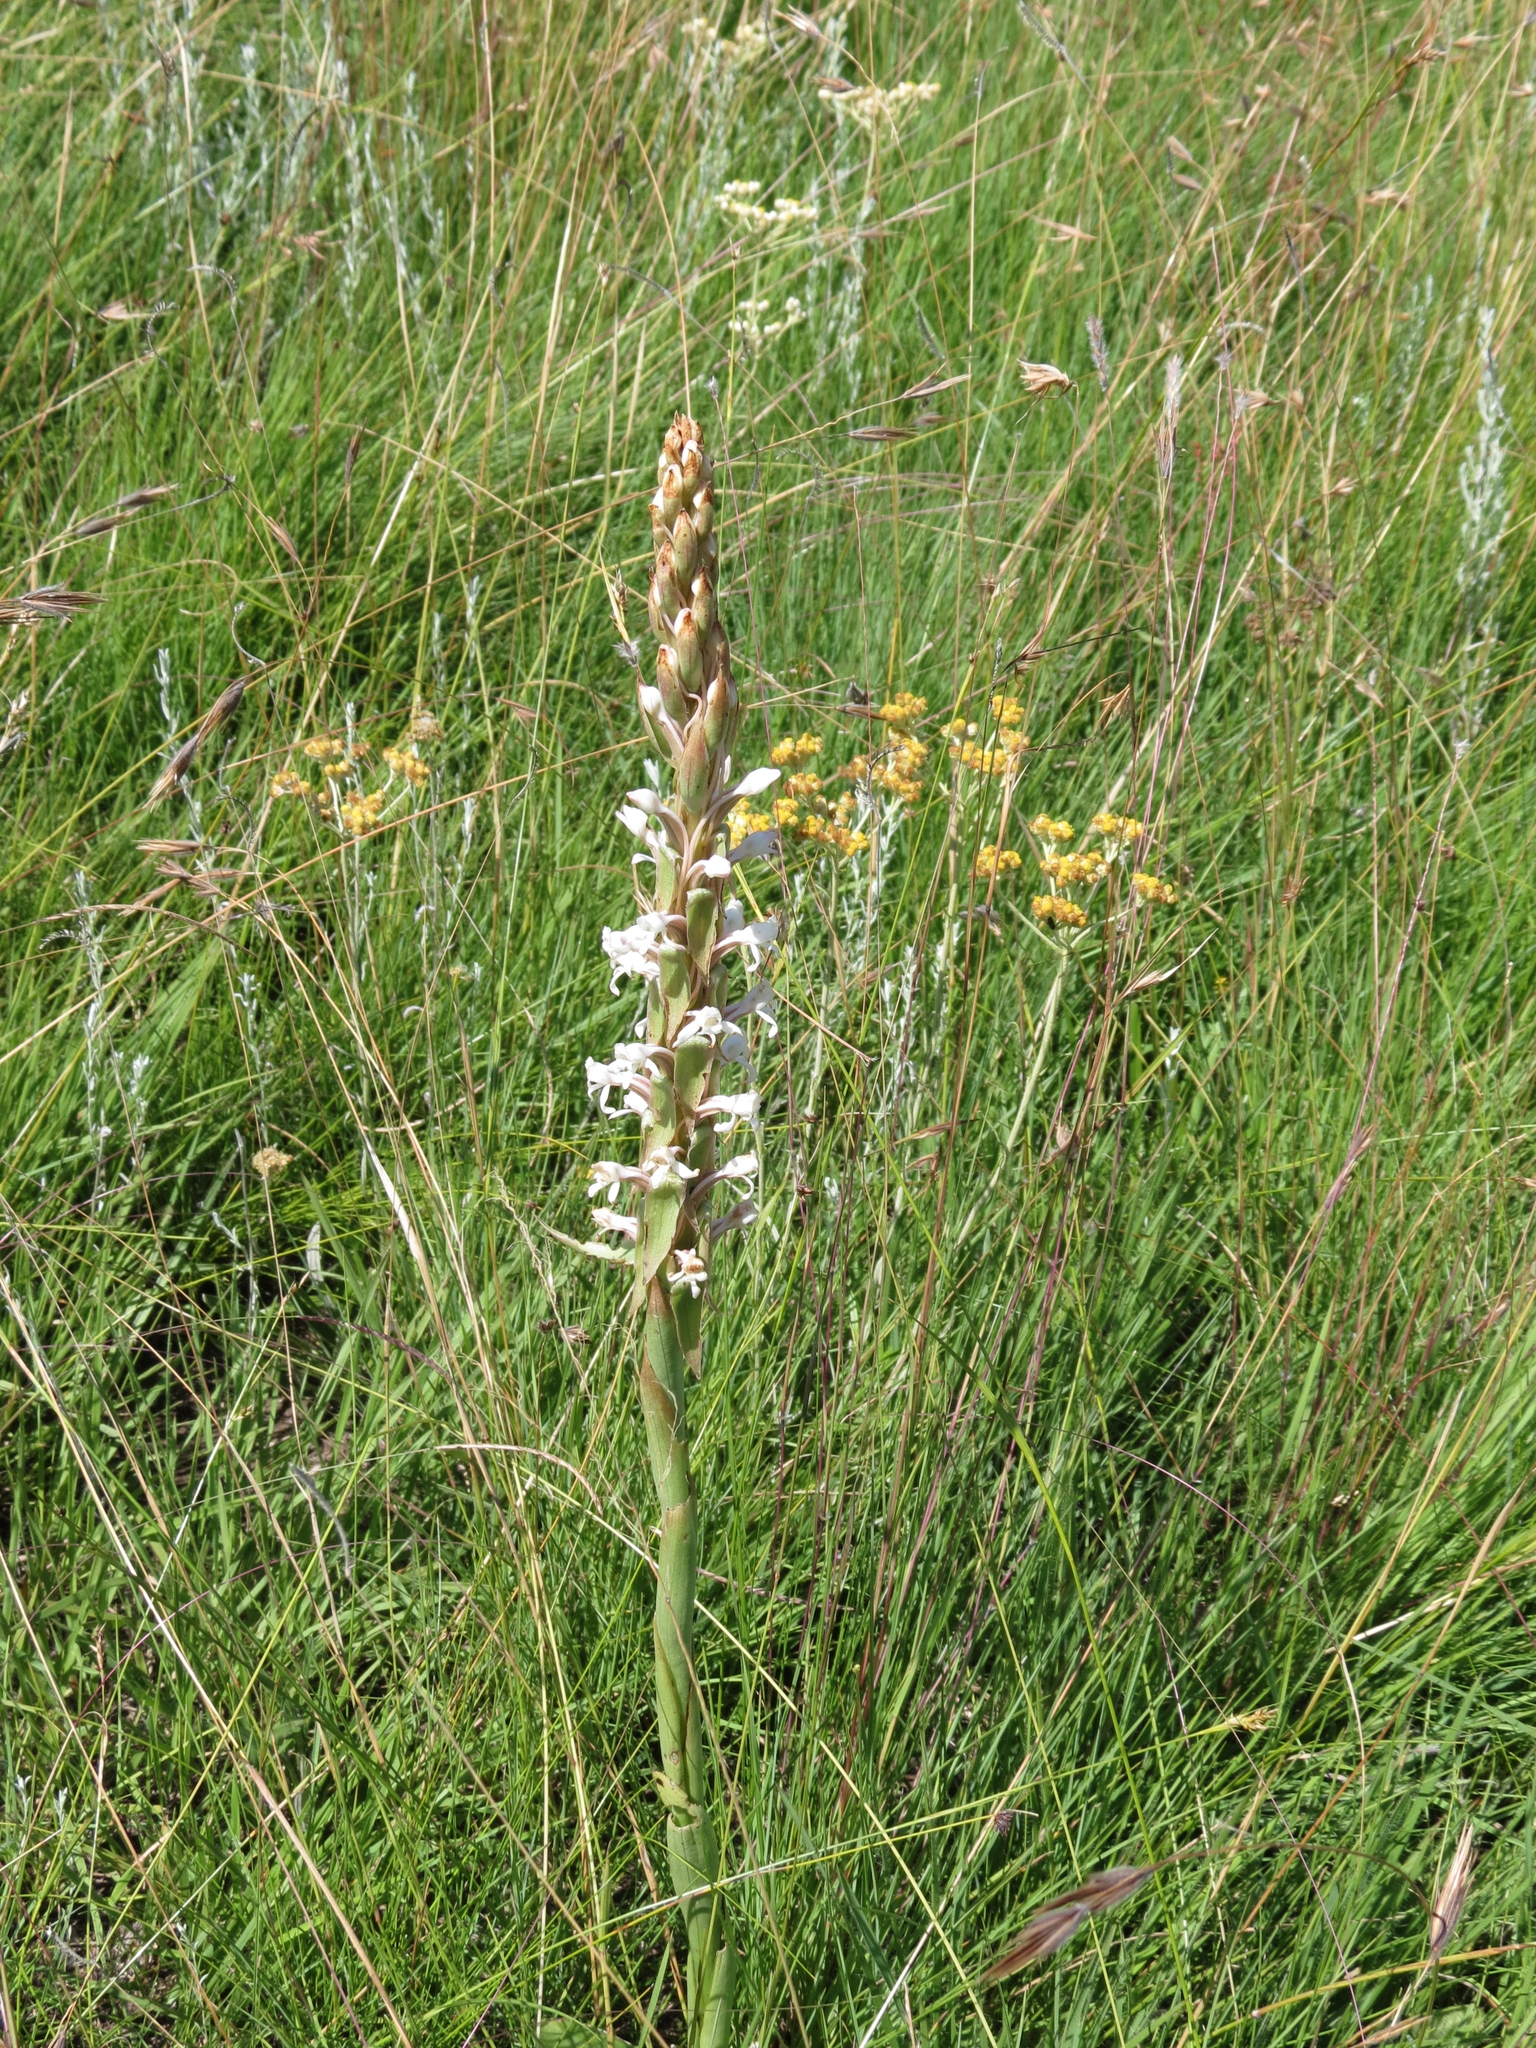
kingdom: Plantae
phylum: Tracheophyta
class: Liliopsida
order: Asparagales
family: Orchidaceae
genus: Satyrium
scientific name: Satyrium longicauda
